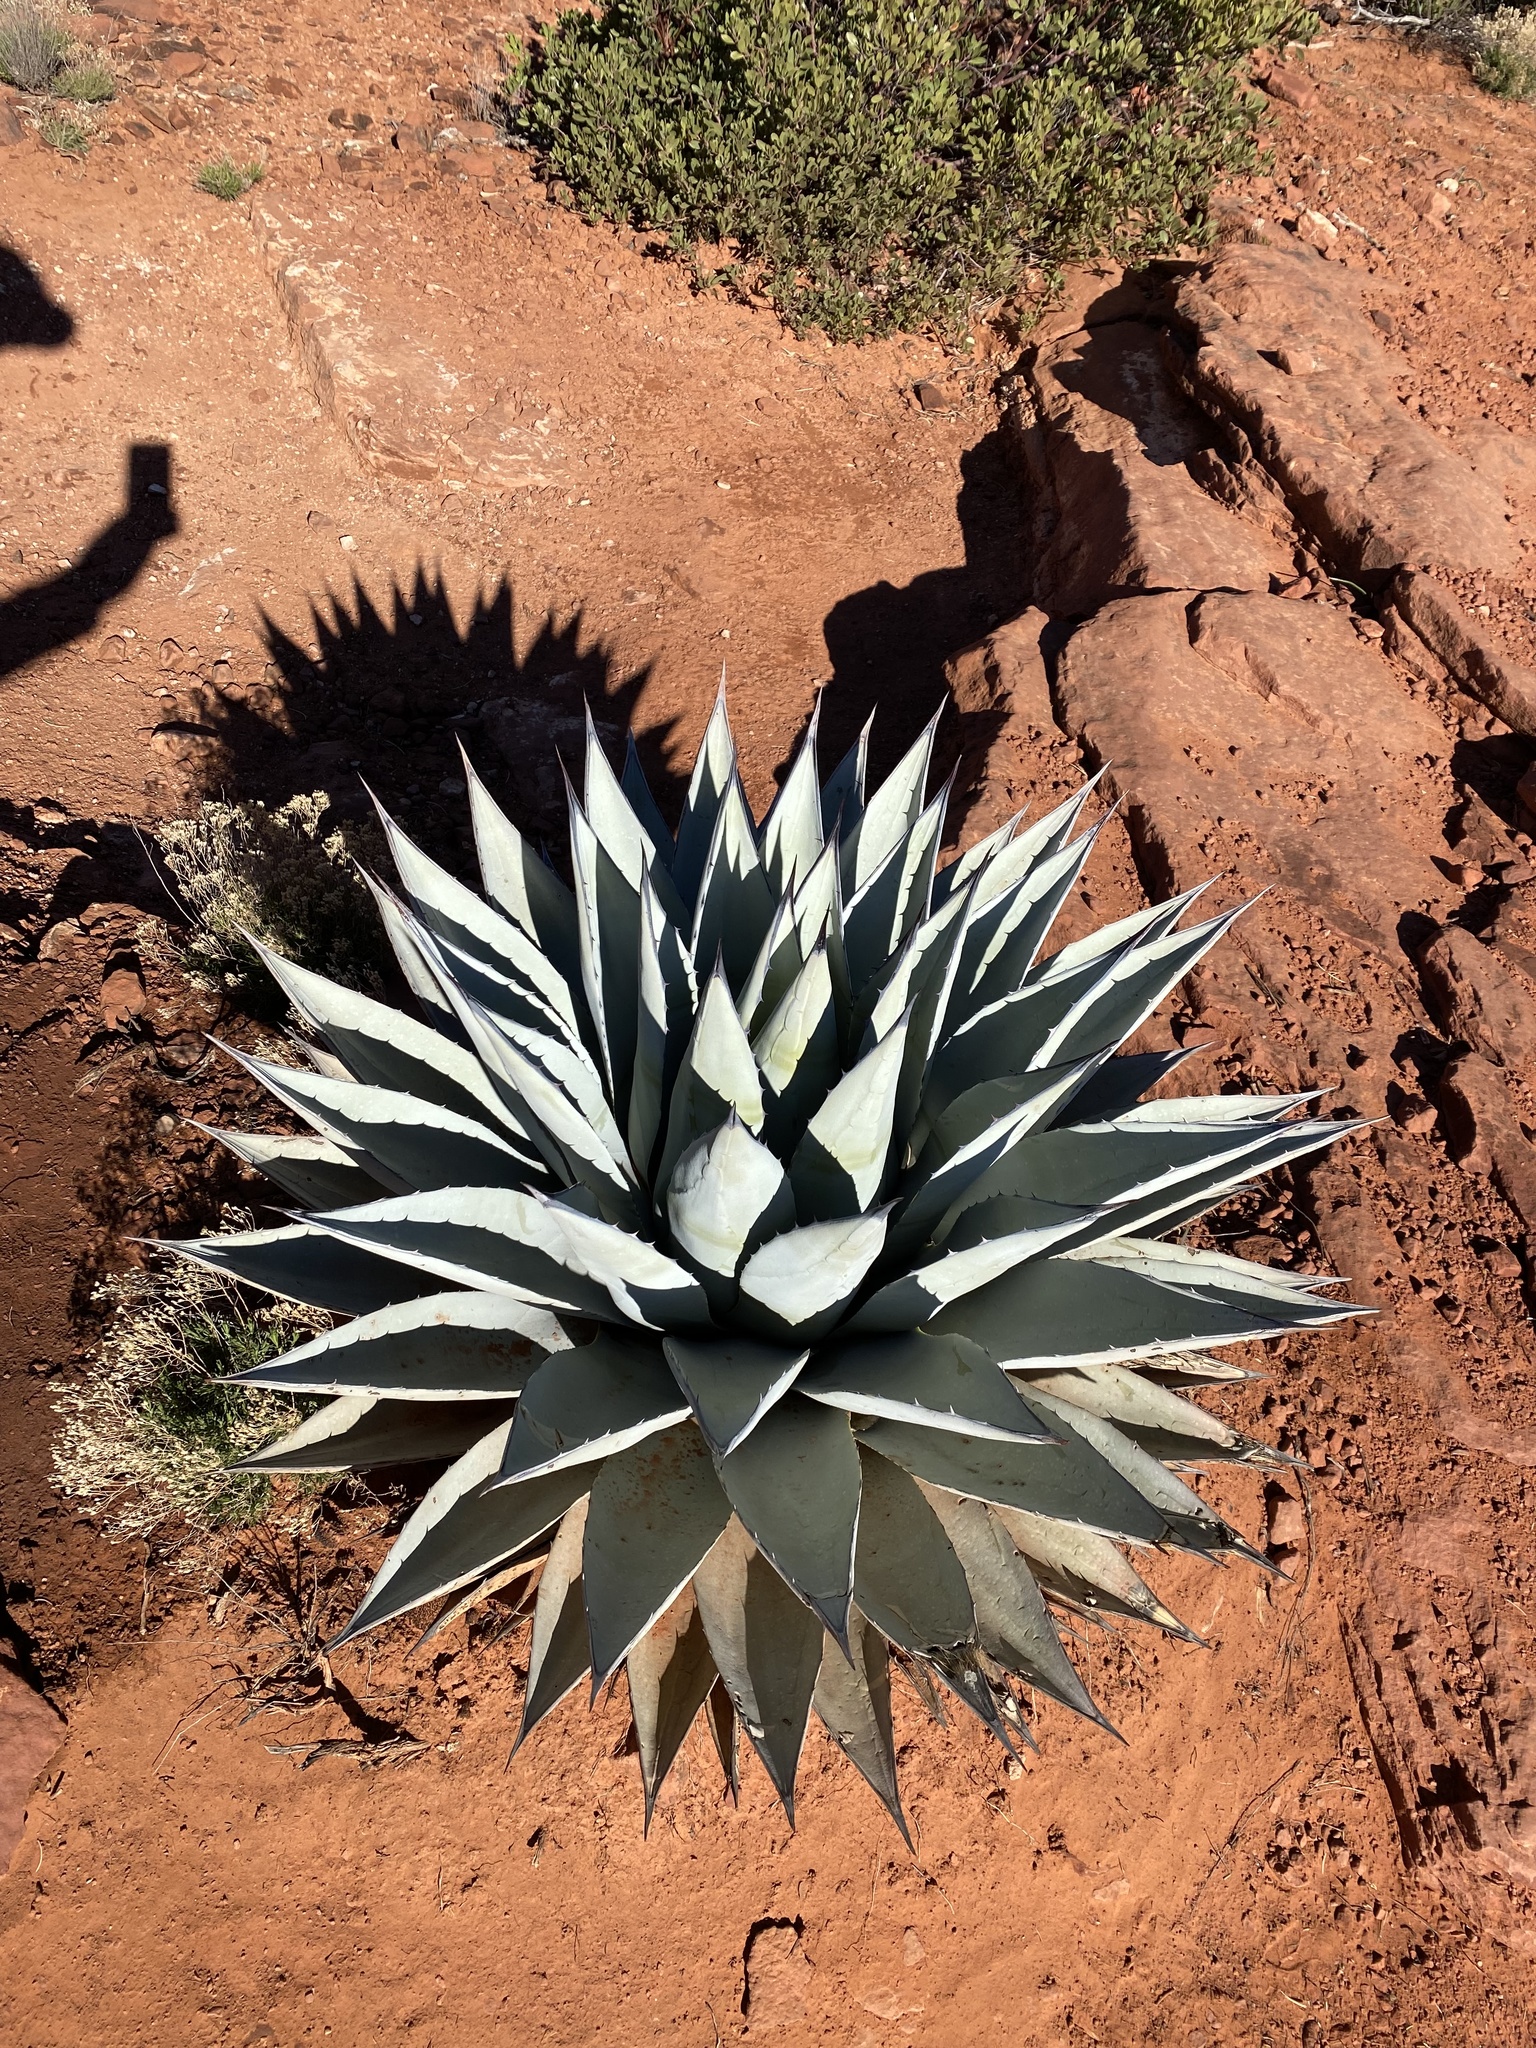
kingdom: Plantae
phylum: Tracheophyta
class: Liliopsida
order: Asparagales
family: Asparagaceae
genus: Agave
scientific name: Agave parryi
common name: Parry's agave
